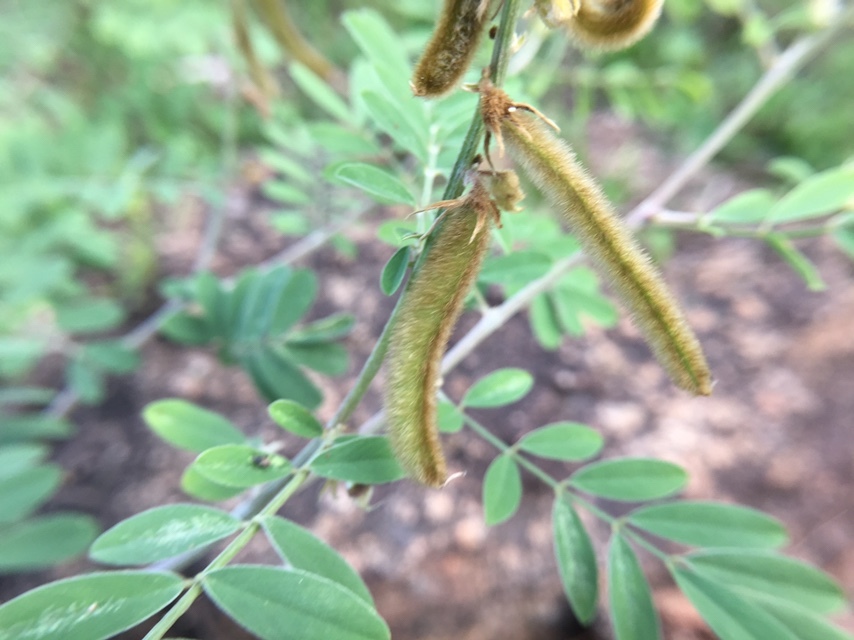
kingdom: Plantae
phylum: Tracheophyta
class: Magnoliopsida
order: Fabales
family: Fabaceae
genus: Tephrosia
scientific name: Tephrosia villosa
